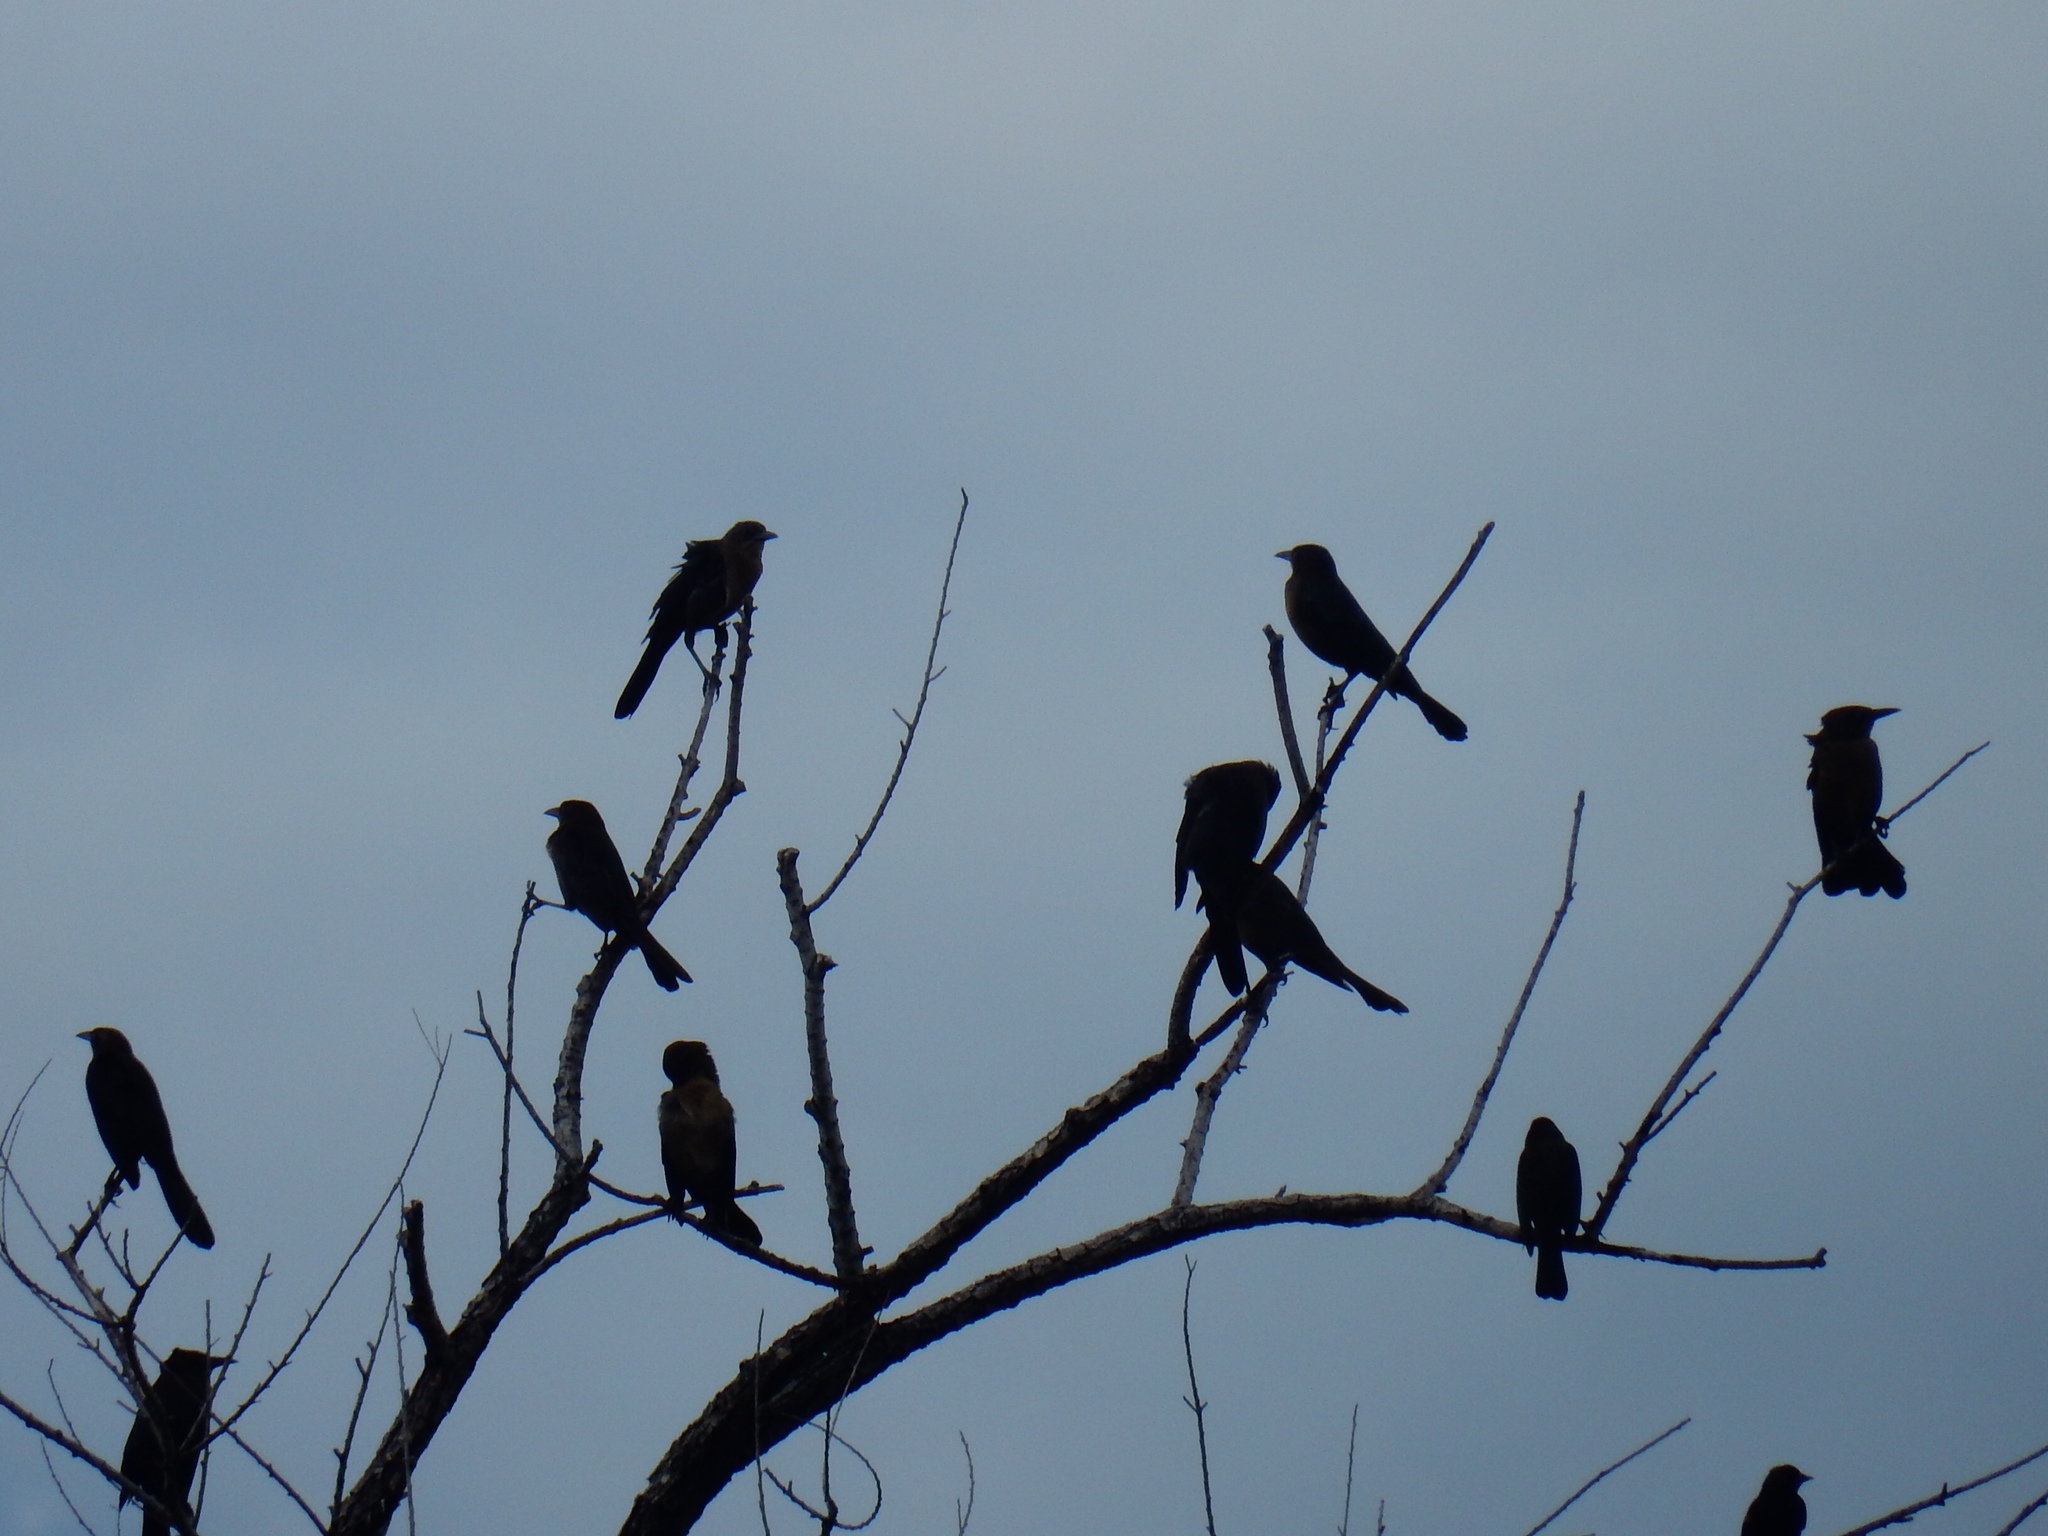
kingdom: Animalia
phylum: Chordata
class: Aves
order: Passeriformes
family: Icteridae
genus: Quiscalus
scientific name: Quiscalus mexicanus
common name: Great-tailed grackle
